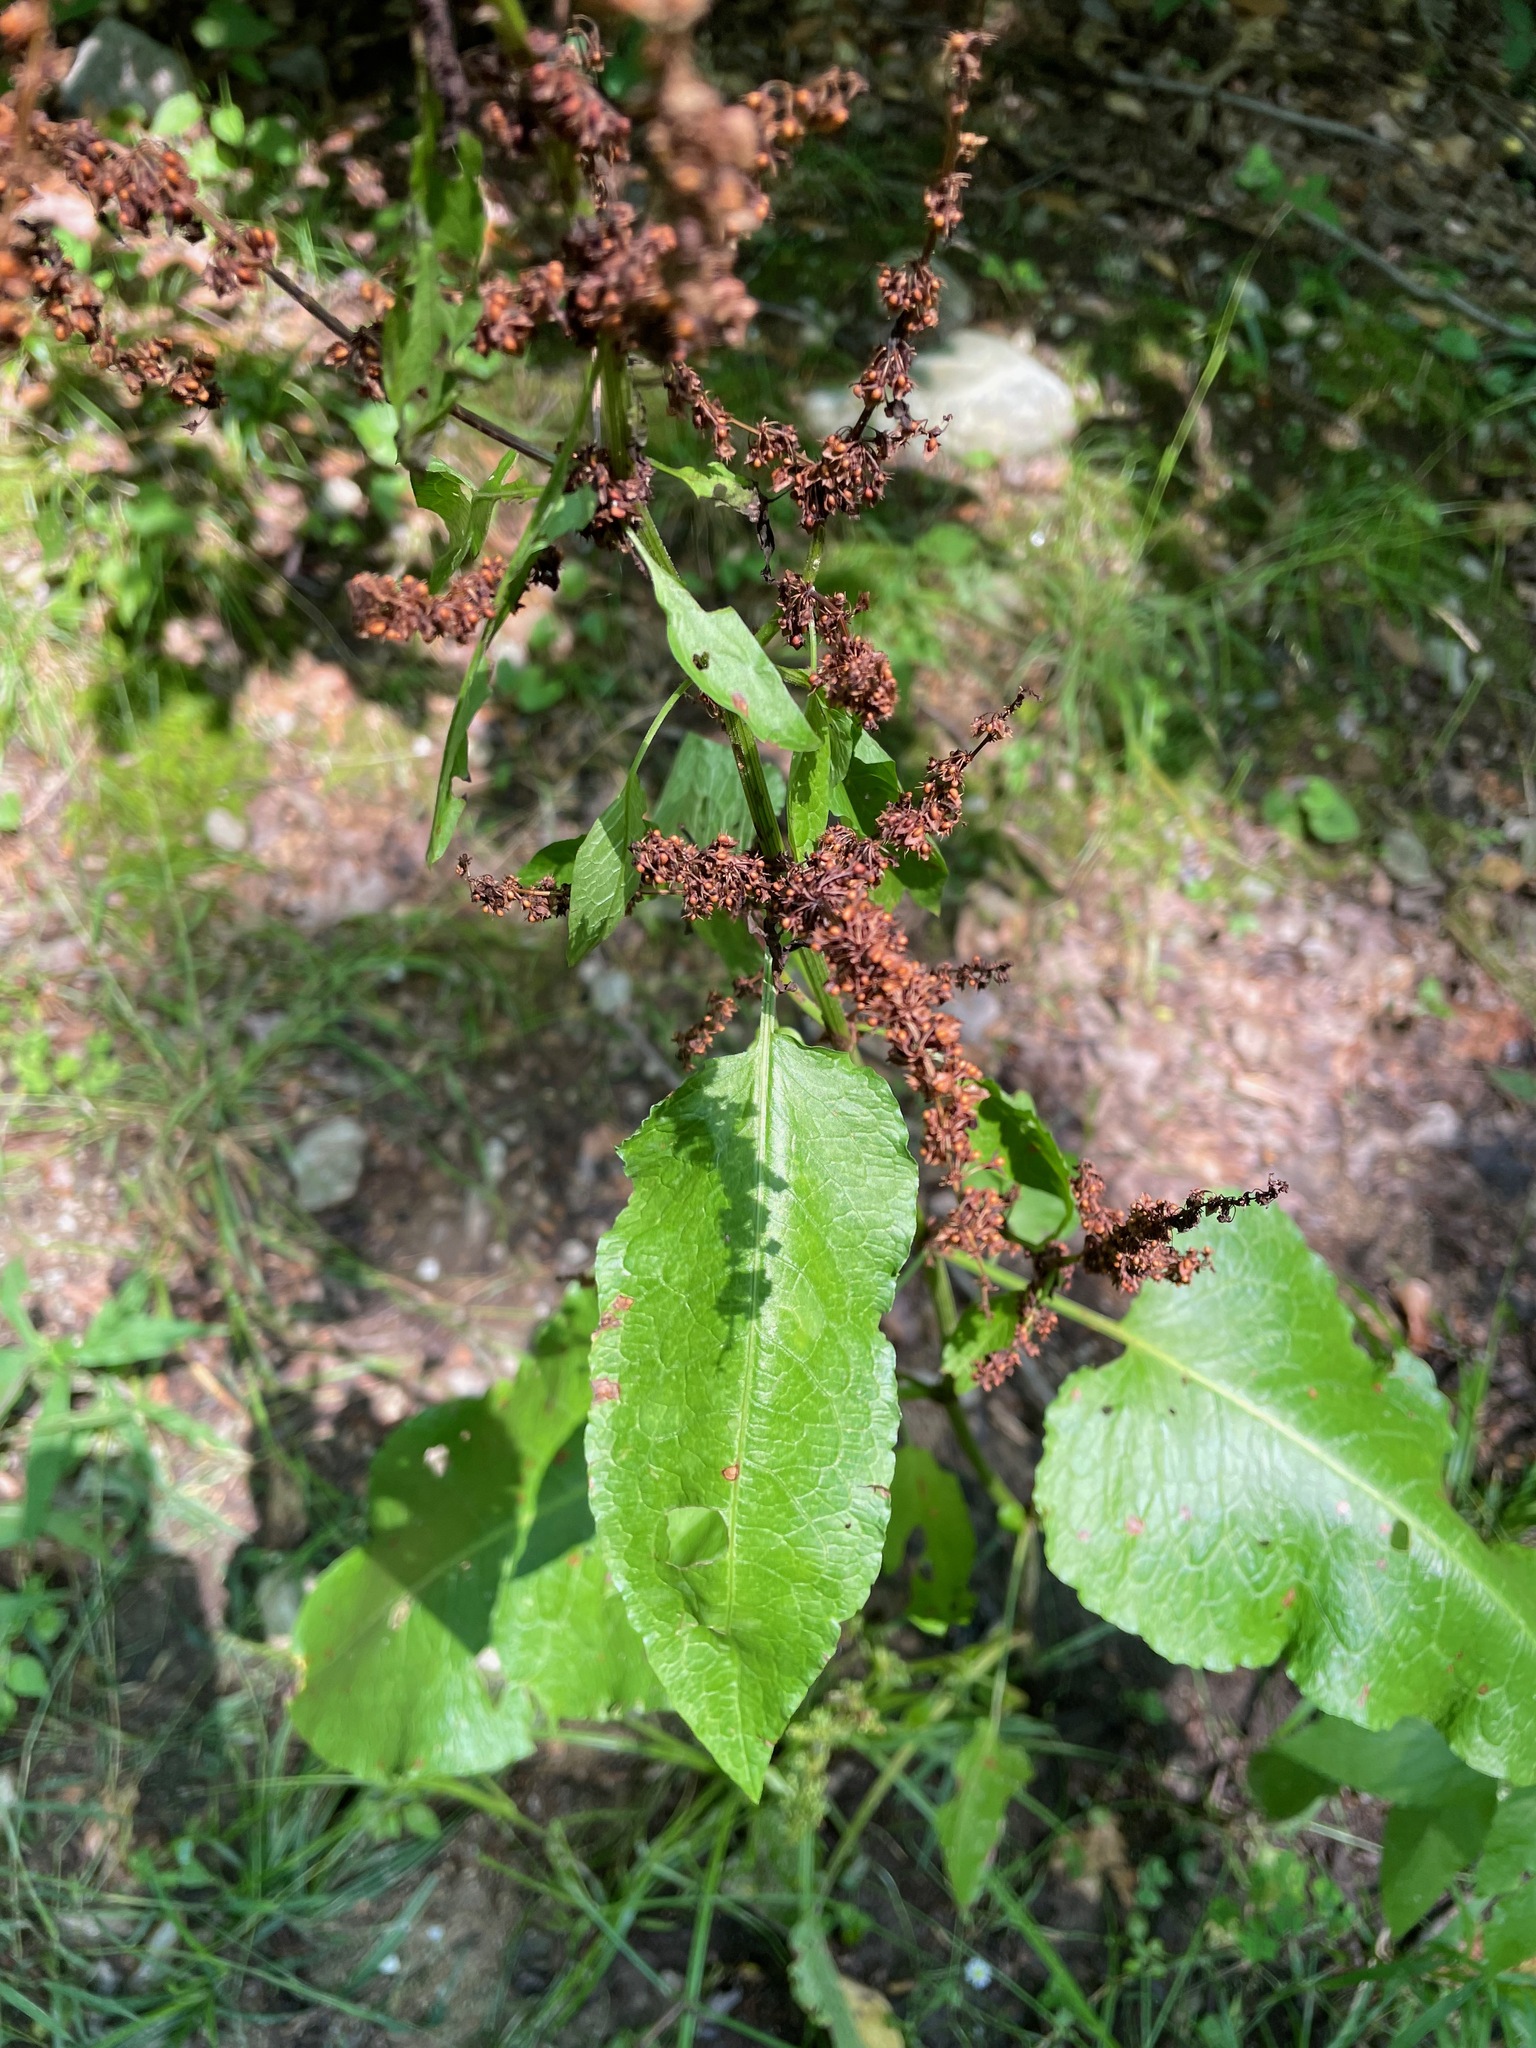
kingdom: Plantae
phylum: Tracheophyta
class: Magnoliopsida
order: Caryophyllales
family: Polygonaceae
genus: Rumex
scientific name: Rumex obtusifolius
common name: Bitter dock
